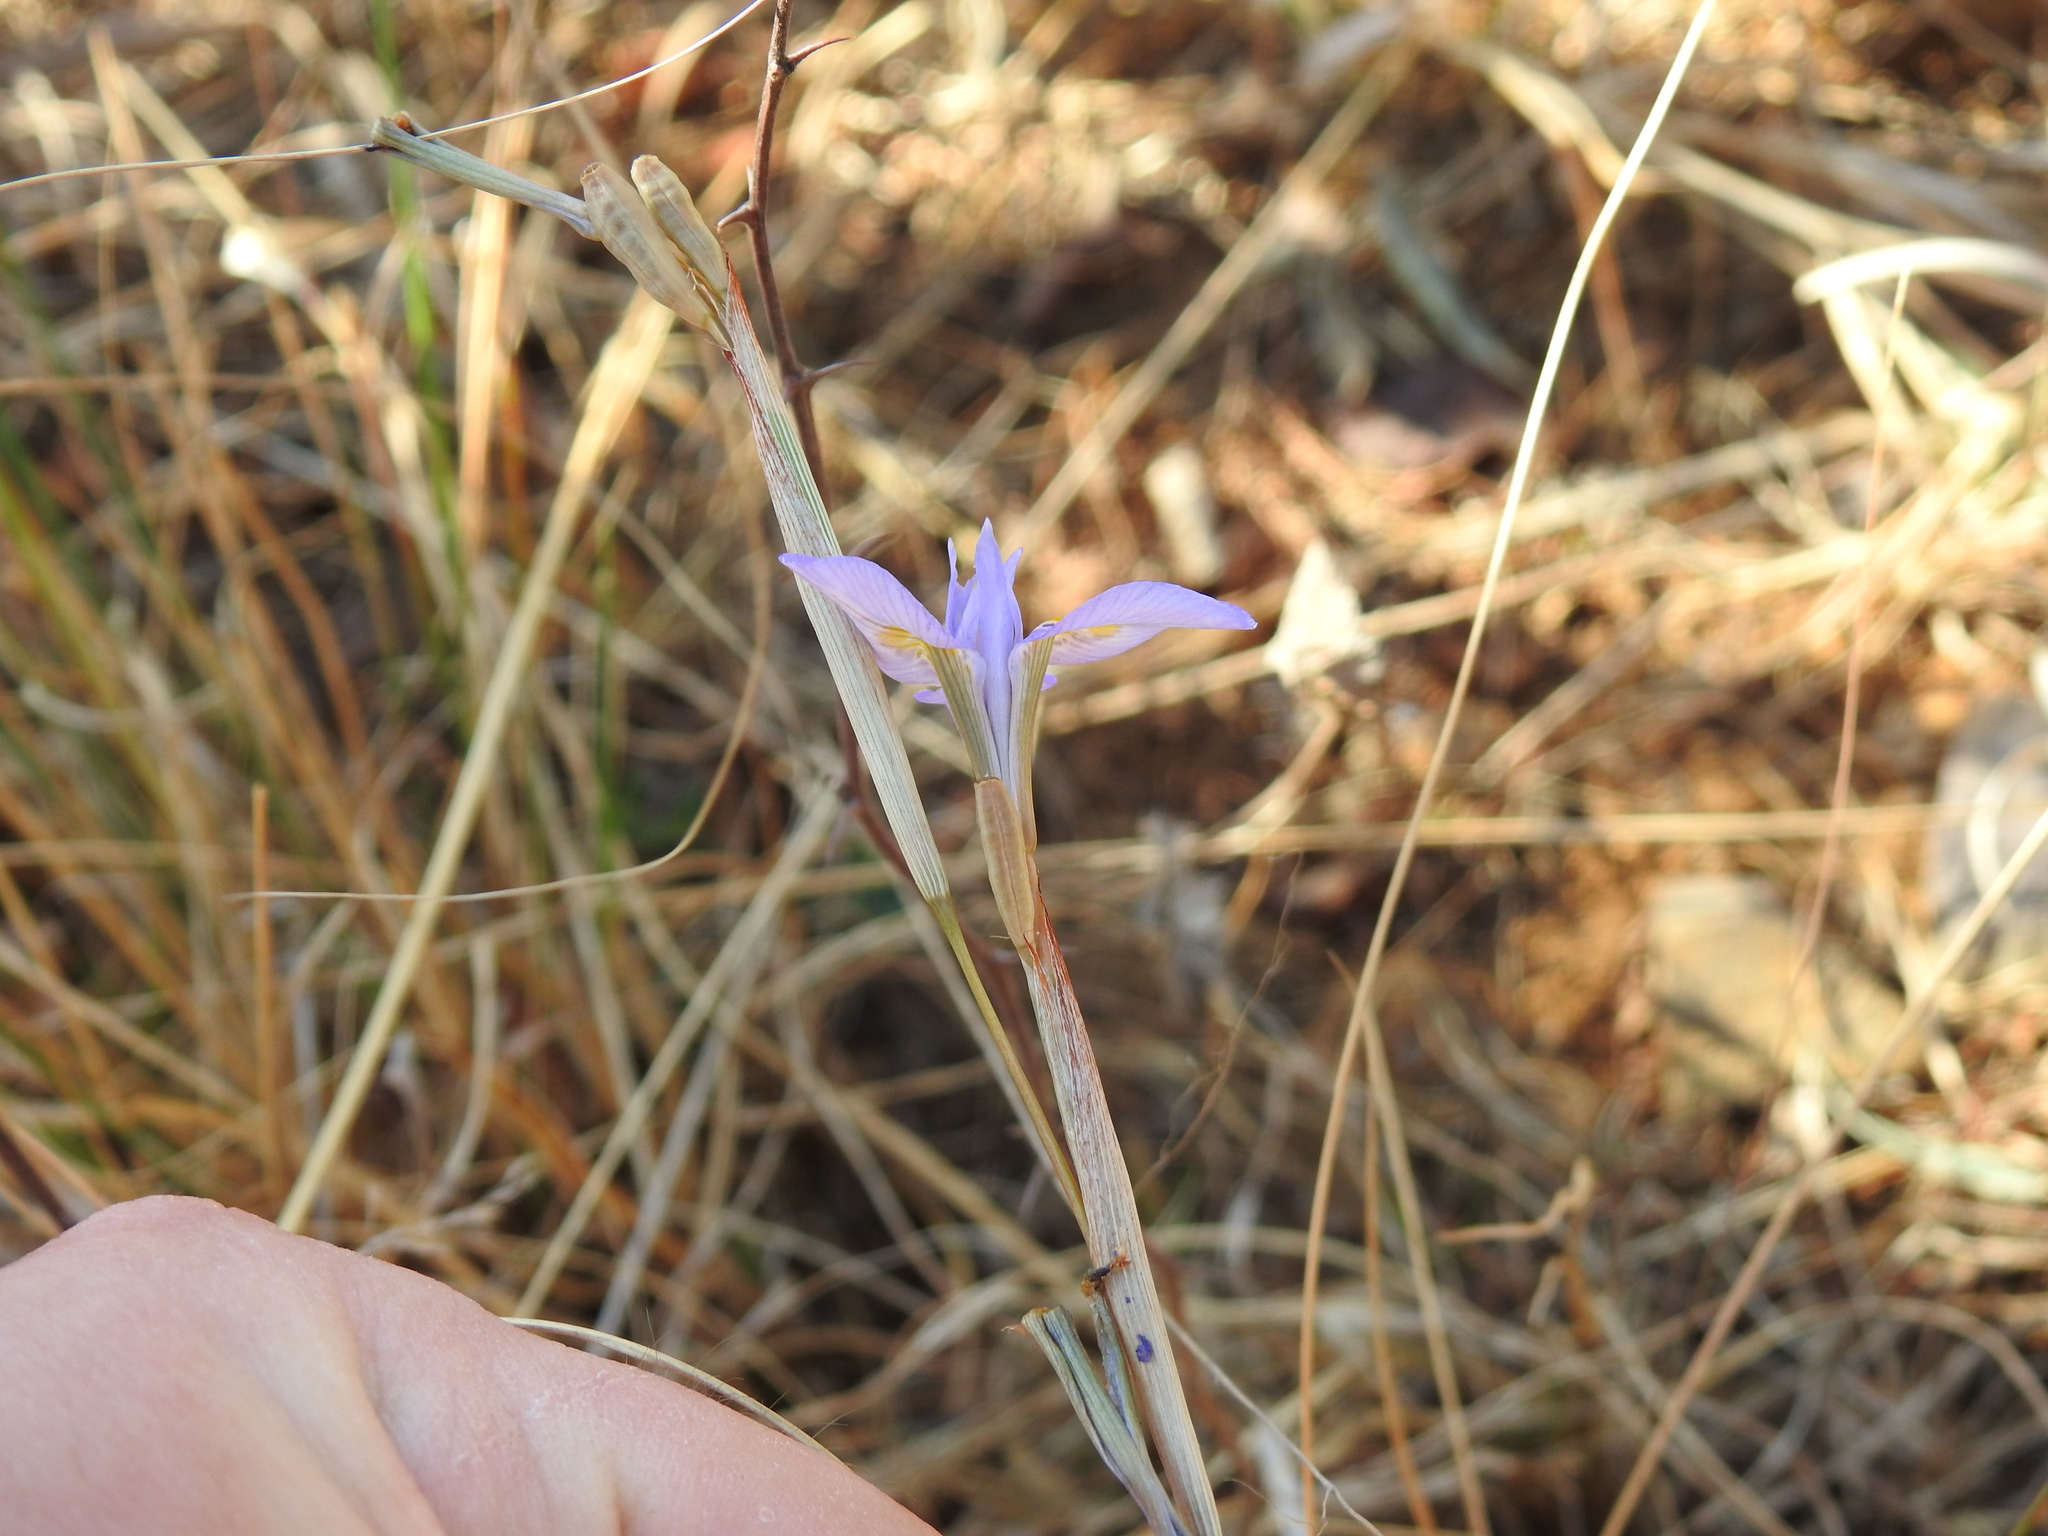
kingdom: Plantae
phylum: Tracheophyta
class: Liliopsida
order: Asparagales
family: Iridaceae
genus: Moraea
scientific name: Moraea stricta
